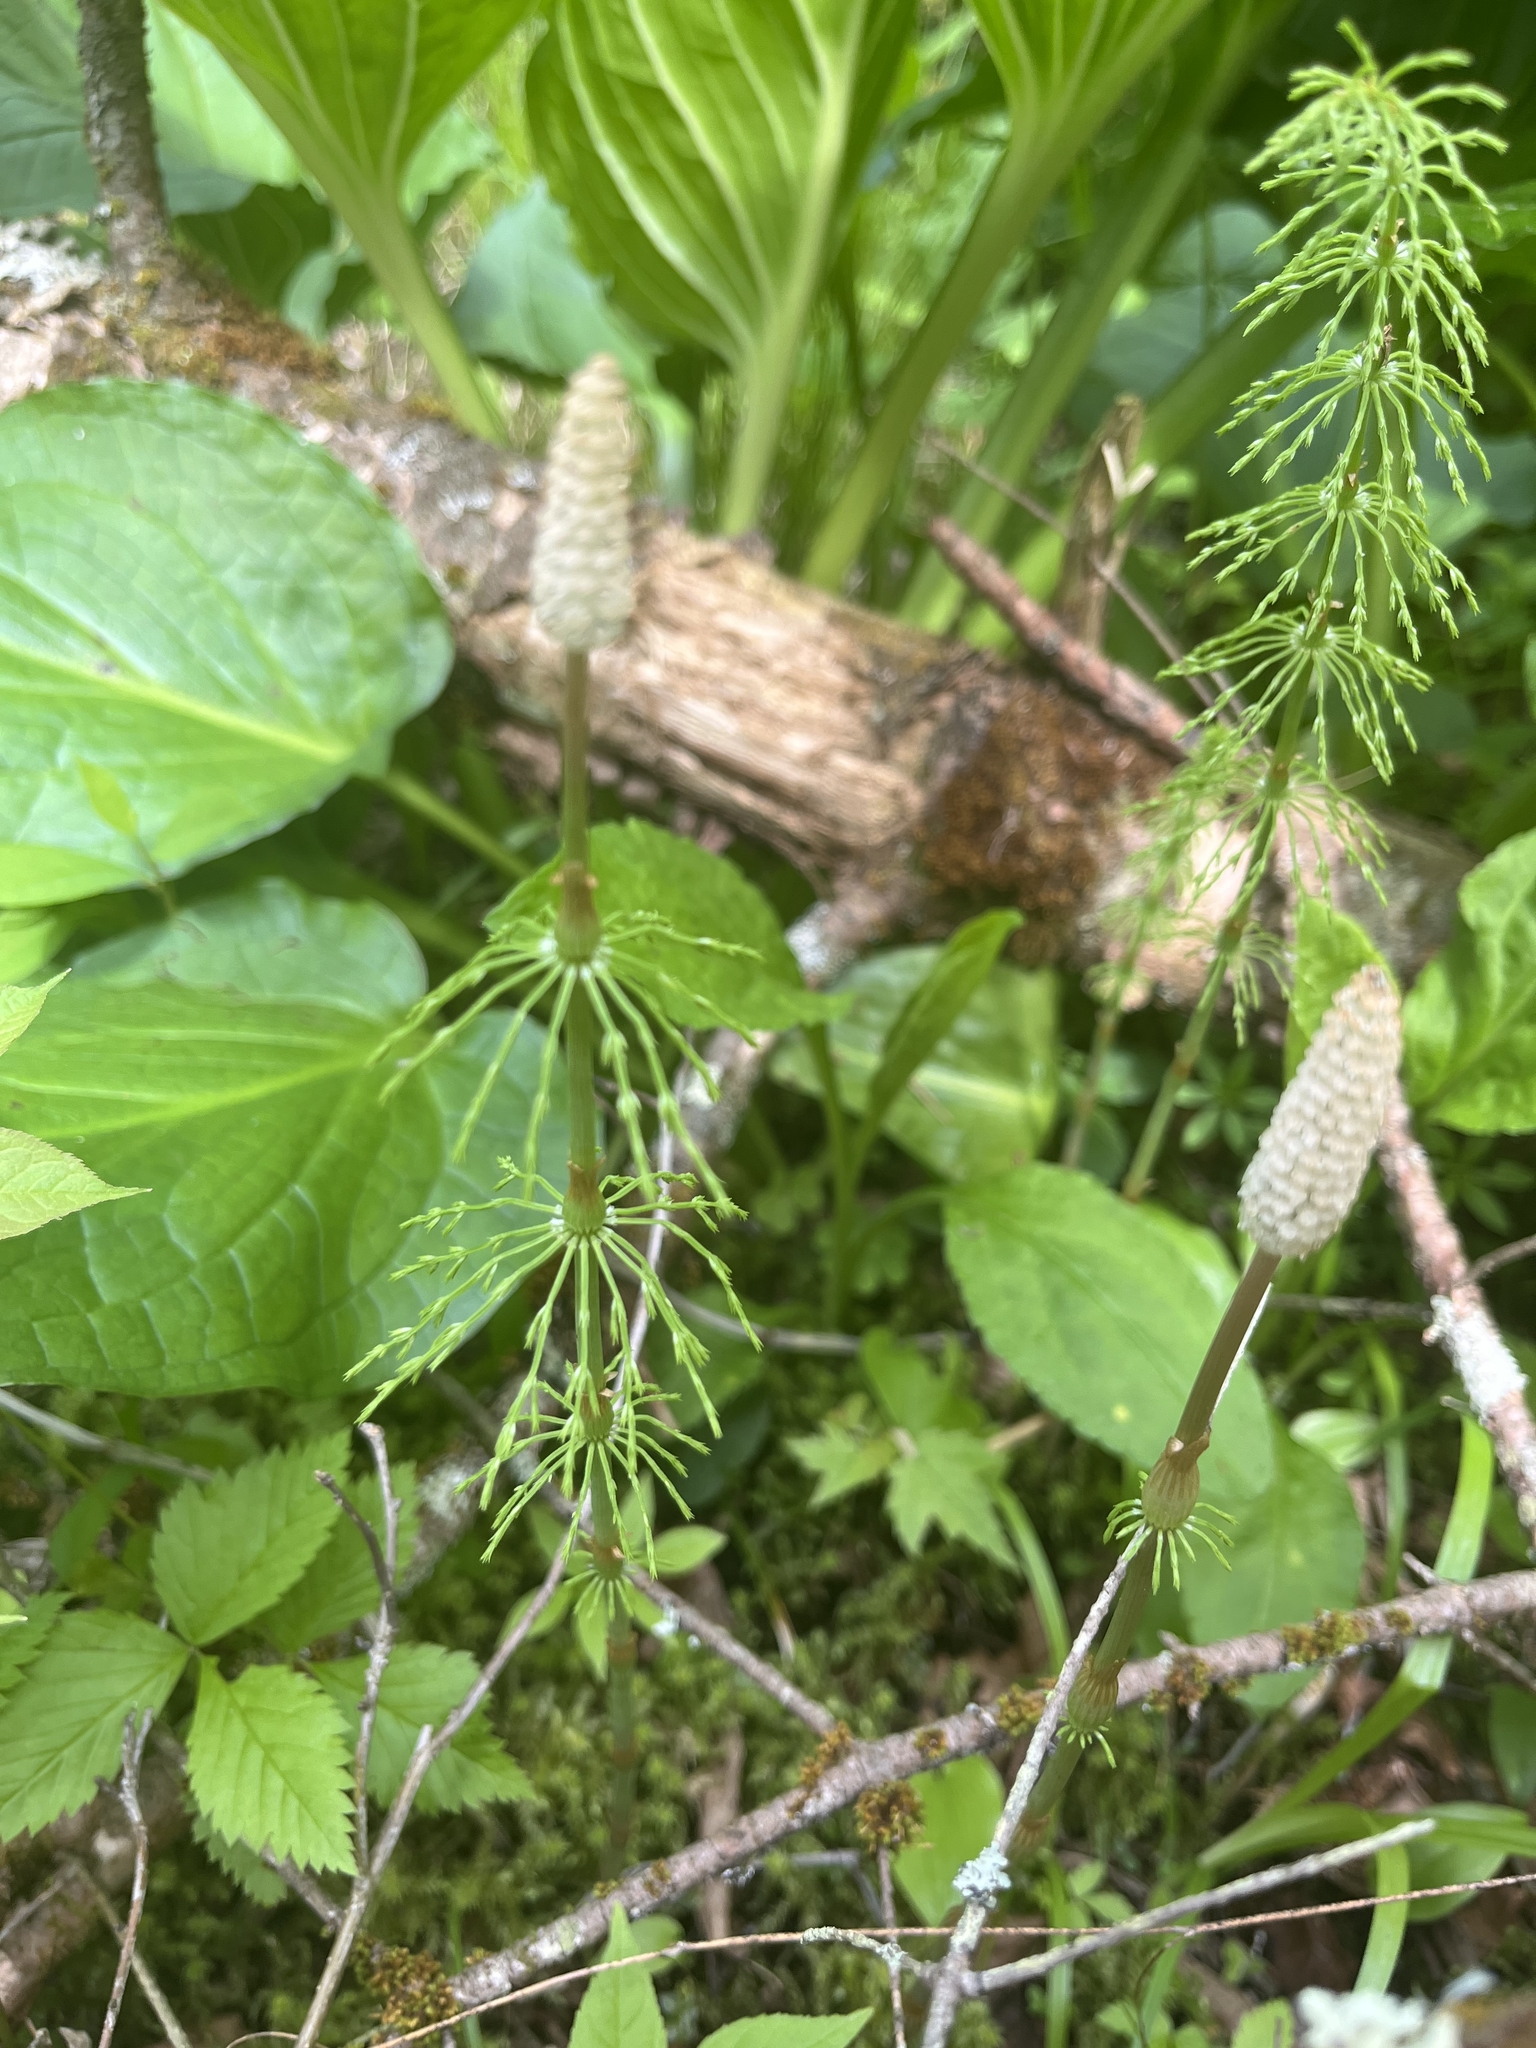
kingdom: Plantae
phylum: Tracheophyta
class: Polypodiopsida
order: Equisetales
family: Equisetaceae
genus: Equisetum
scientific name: Equisetum sylvaticum
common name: Wood horsetail
